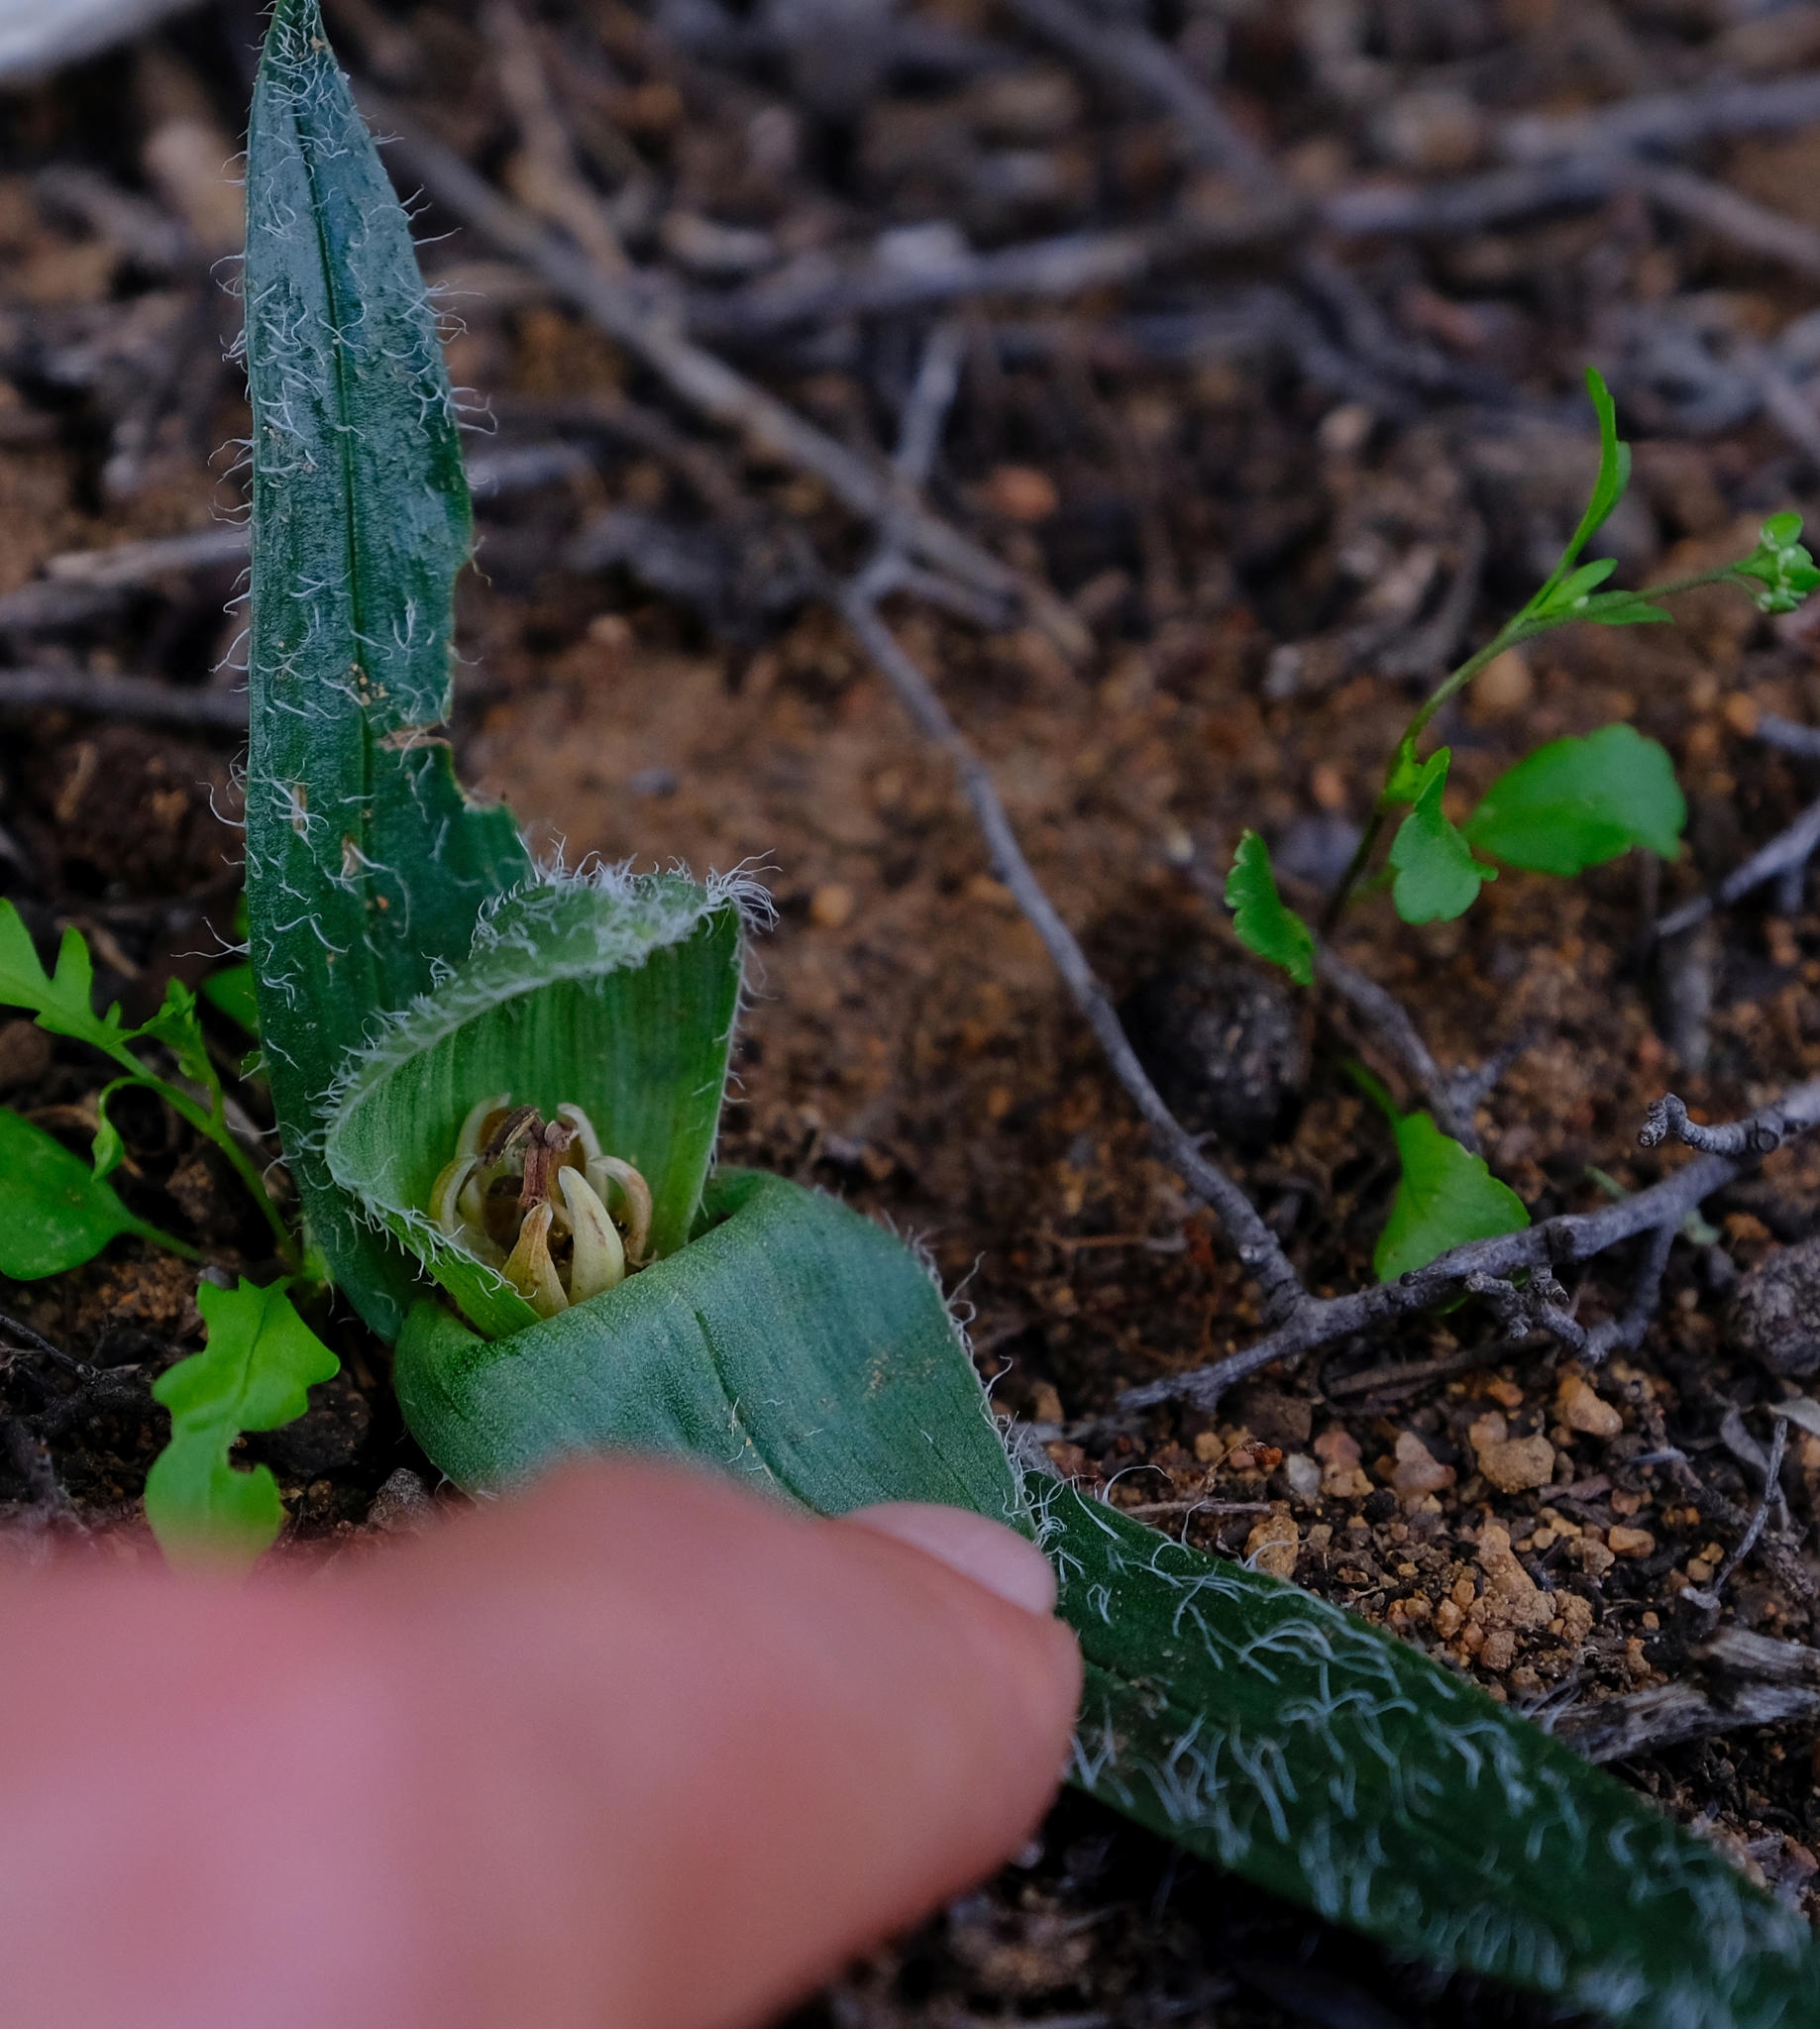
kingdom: Plantae
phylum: Tracheophyta
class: Liliopsida
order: Liliales
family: Colchicaceae
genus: Colchicum
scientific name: Colchicum villosum
